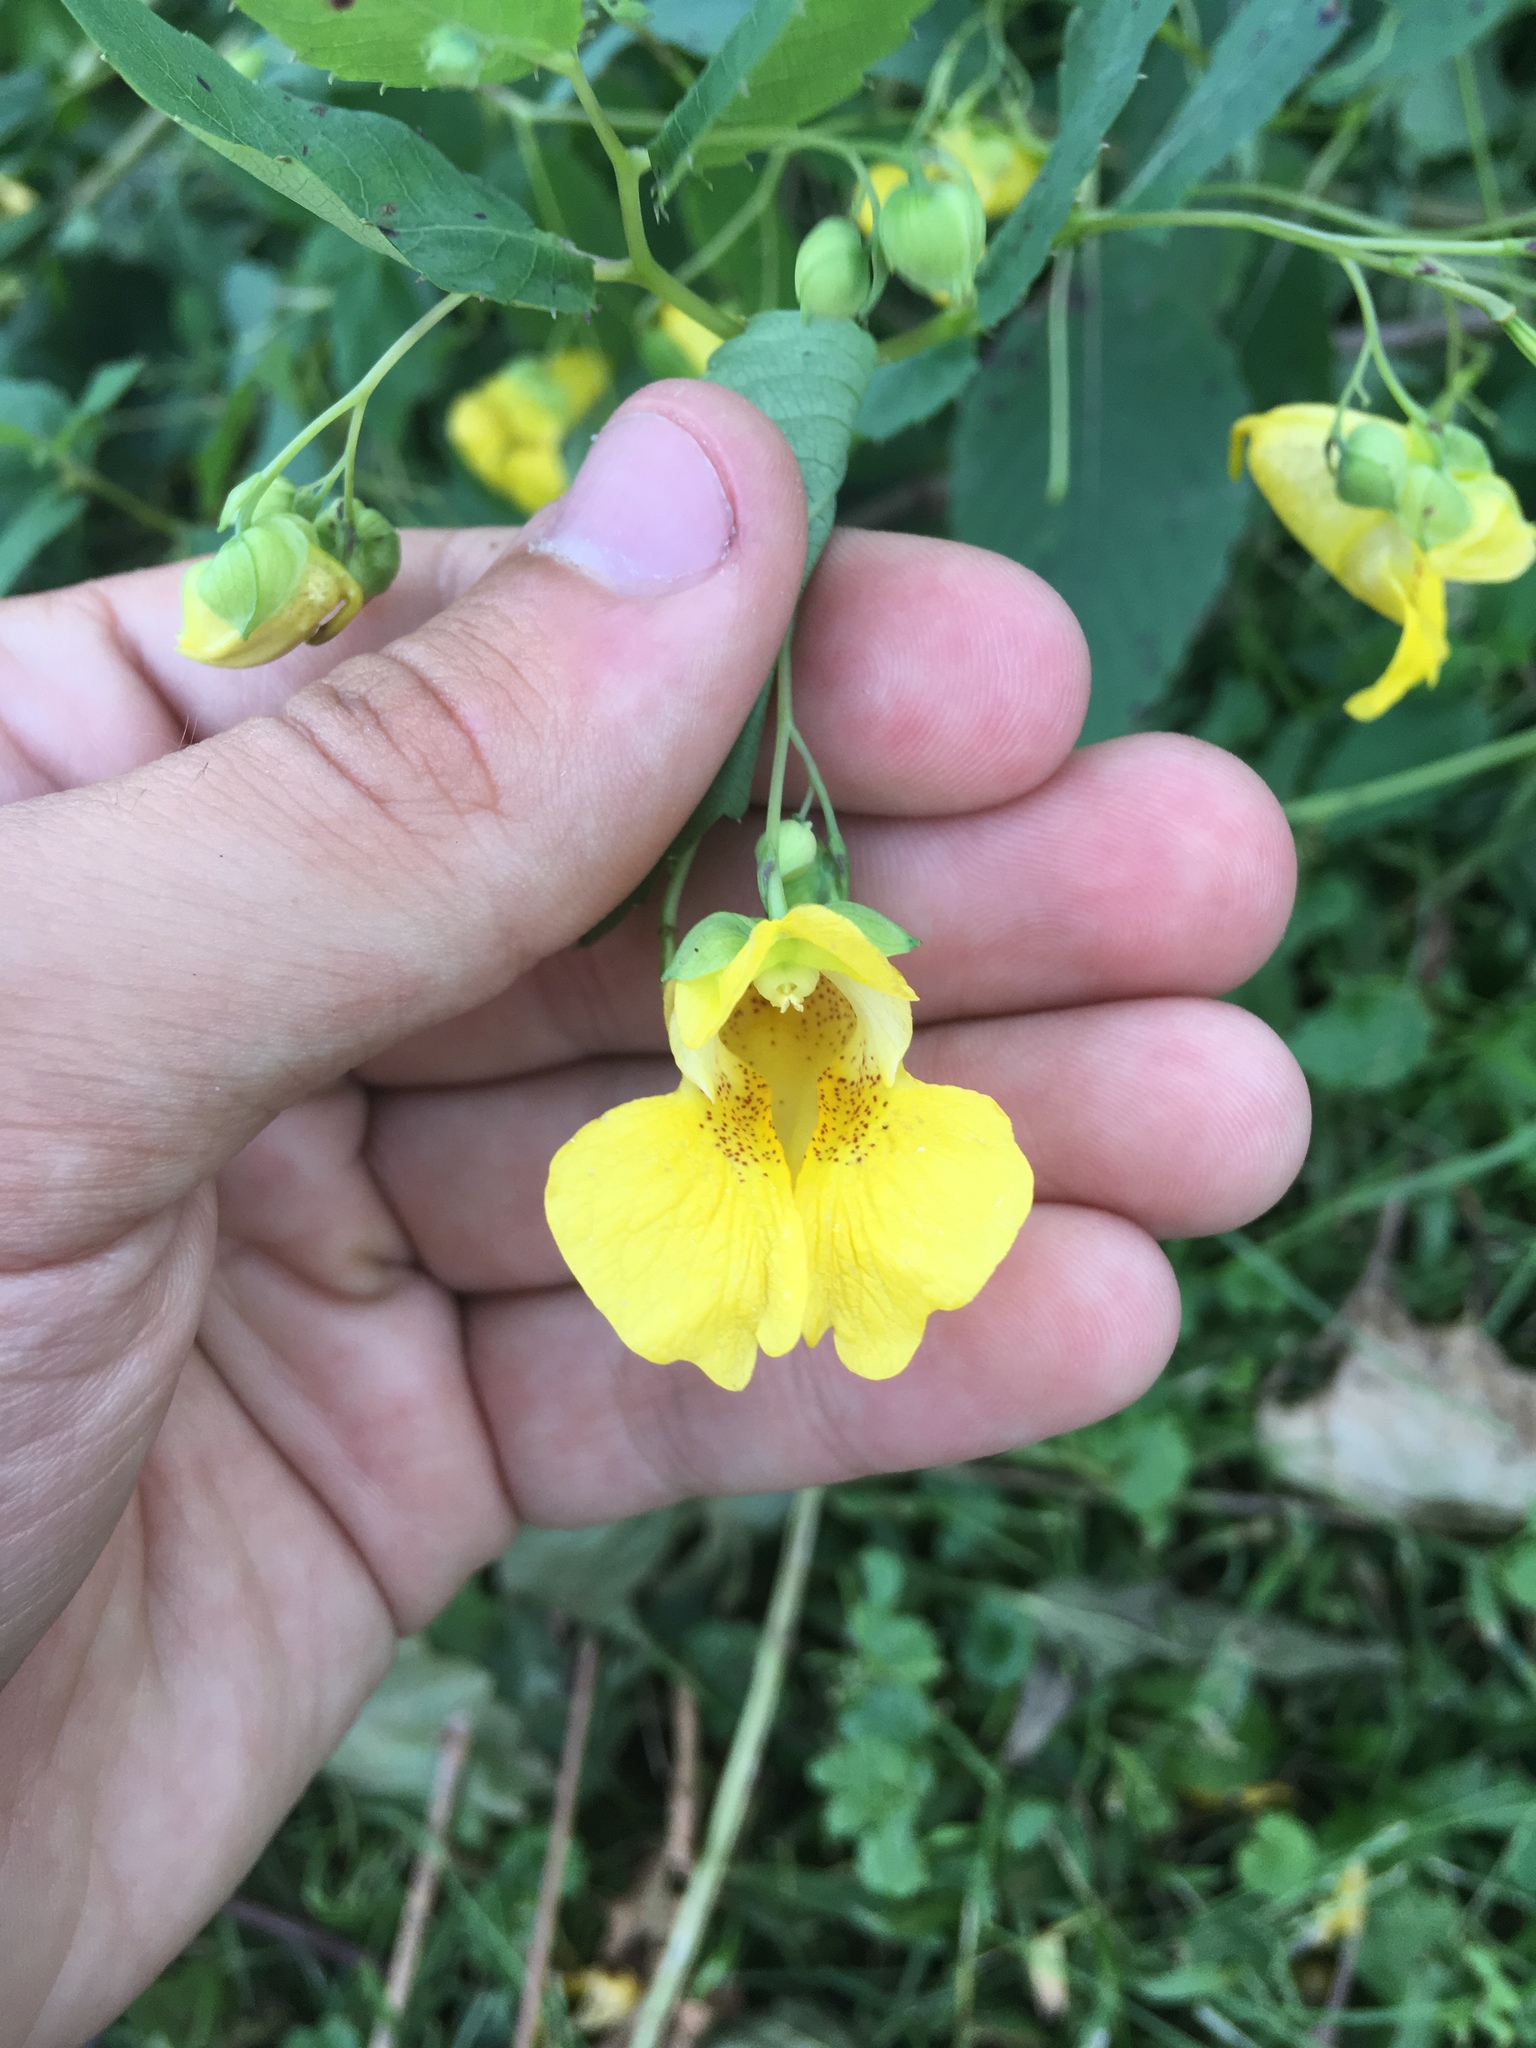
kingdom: Plantae
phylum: Tracheophyta
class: Magnoliopsida
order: Ericales
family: Balsaminaceae
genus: Impatiens
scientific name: Impatiens pallida
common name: Pale snapweed
